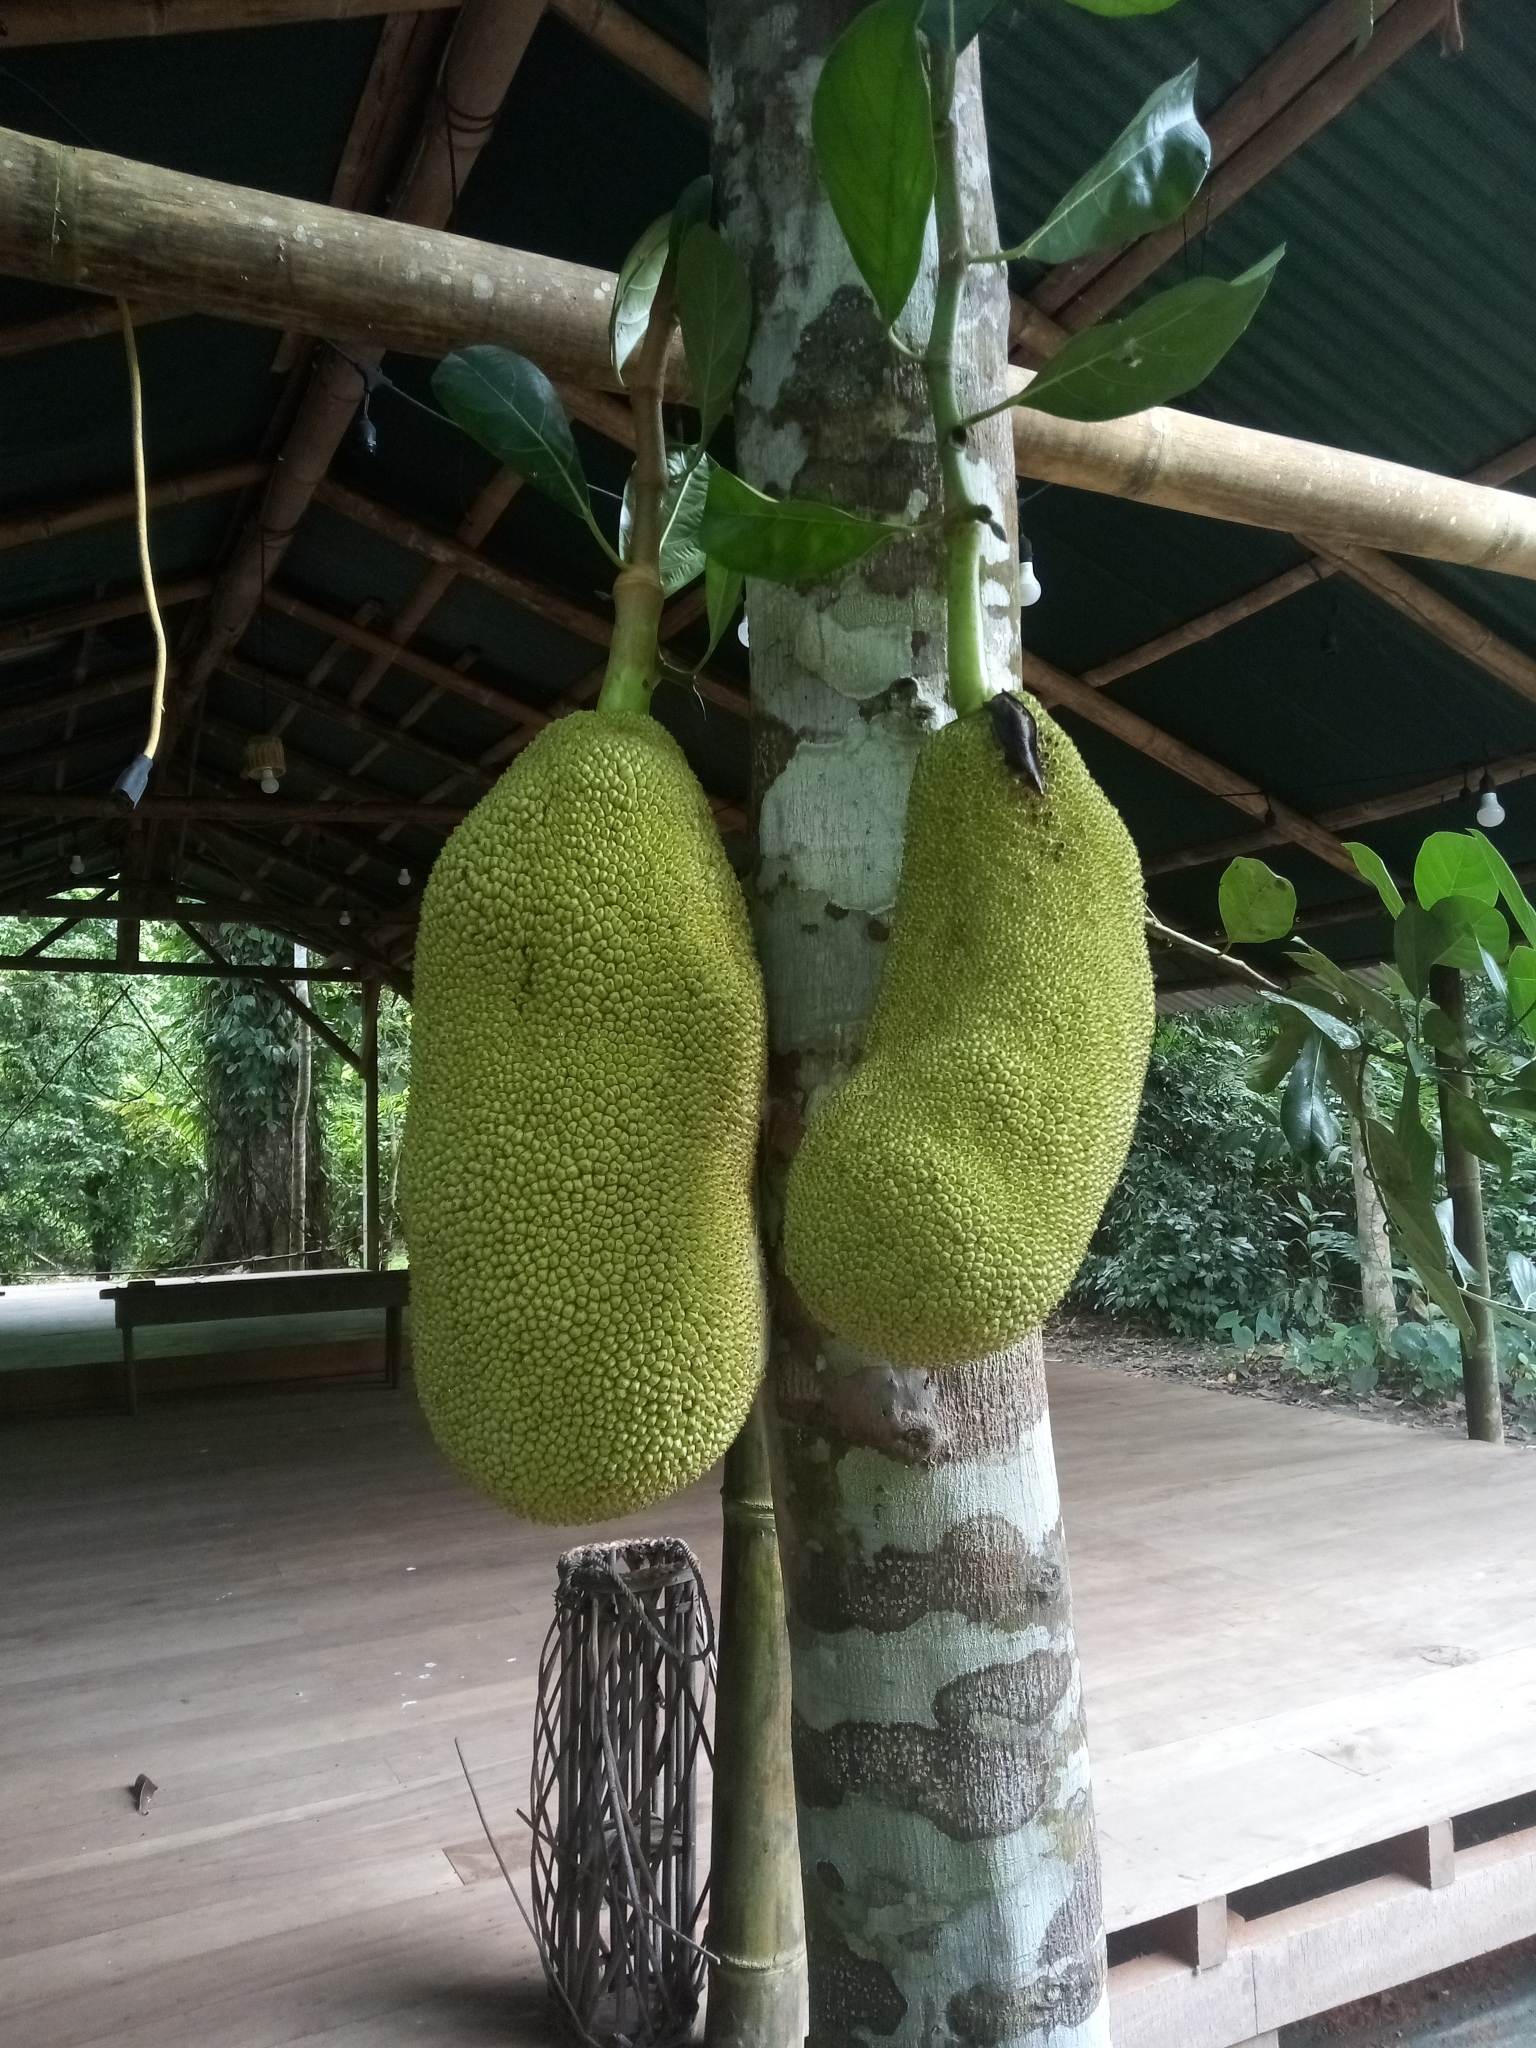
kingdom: Plantae
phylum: Tracheophyta
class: Magnoliopsida
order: Rosales
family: Moraceae
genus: Artocarpus
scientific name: Artocarpus heterophyllus
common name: Jackfruit
